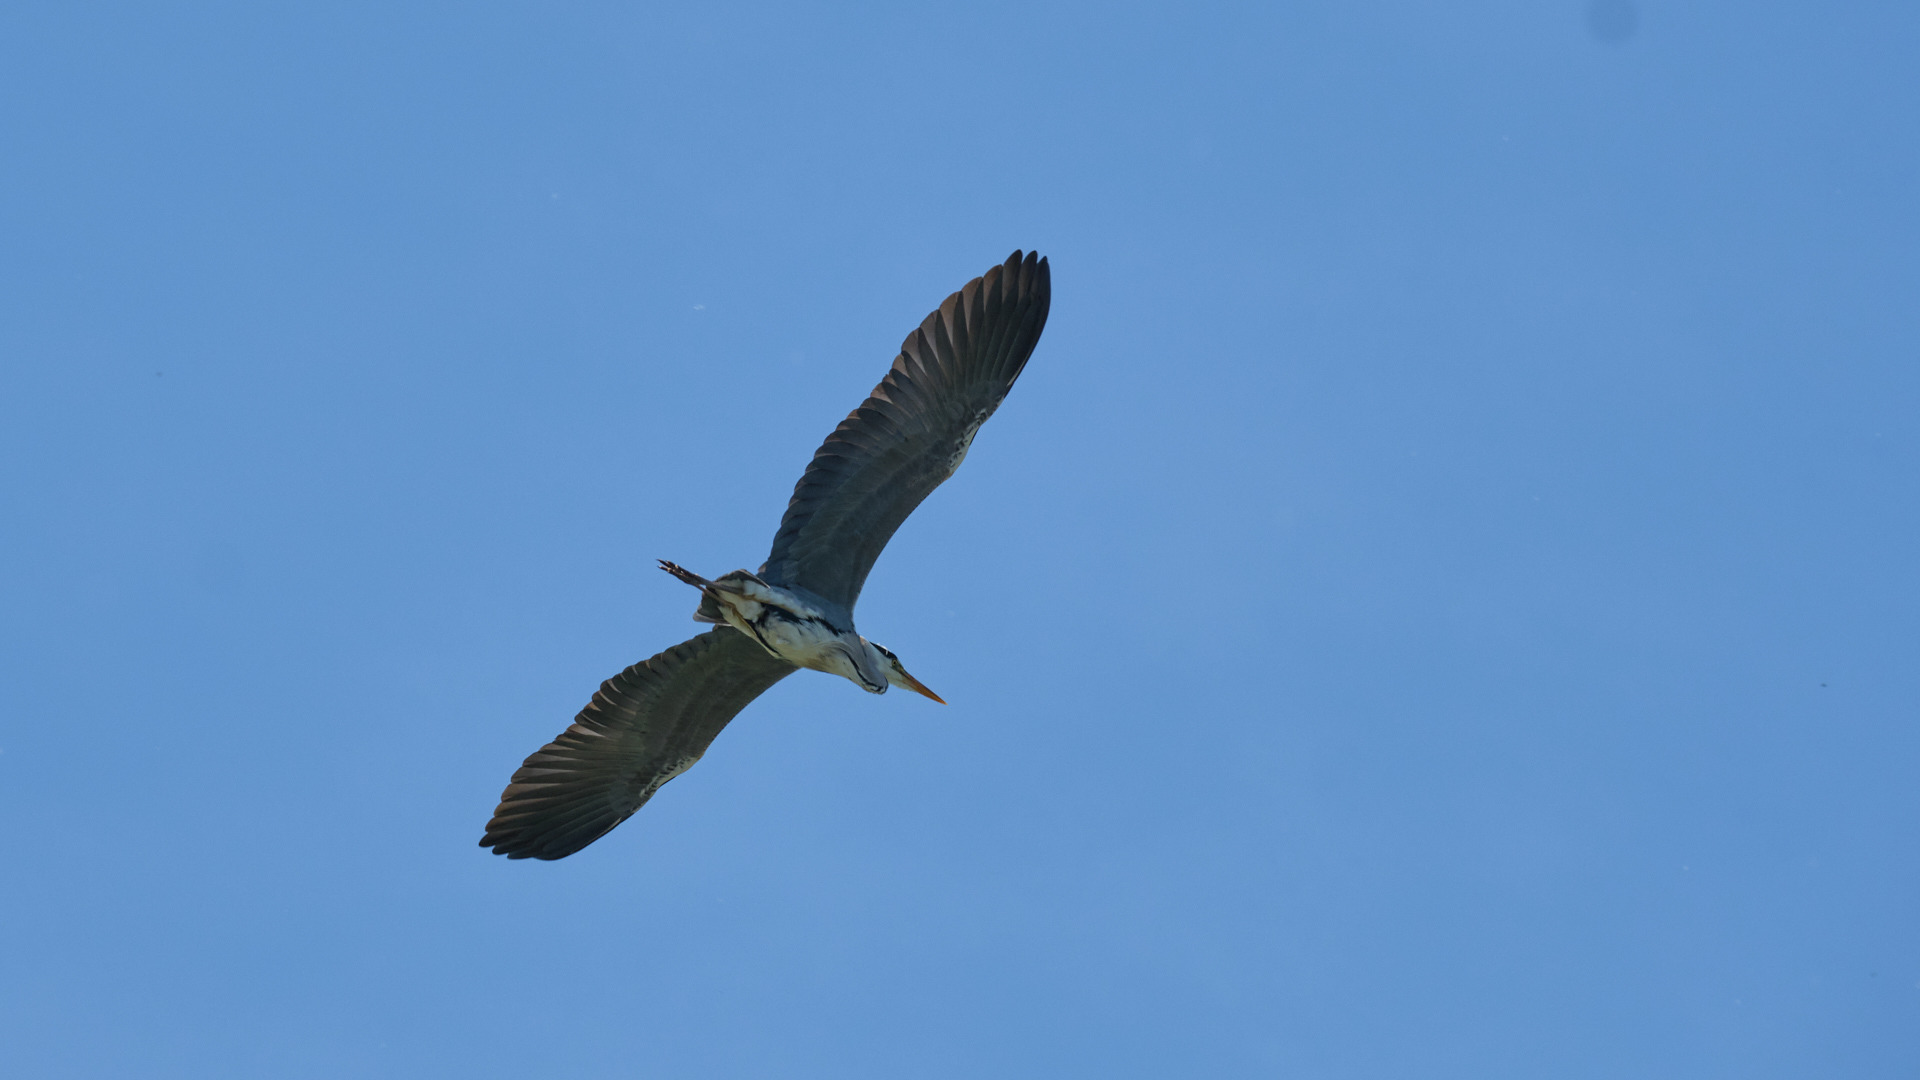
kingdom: Animalia
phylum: Chordata
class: Aves
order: Pelecaniformes
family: Ardeidae
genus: Ardea
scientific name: Ardea cinerea
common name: Grey heron
